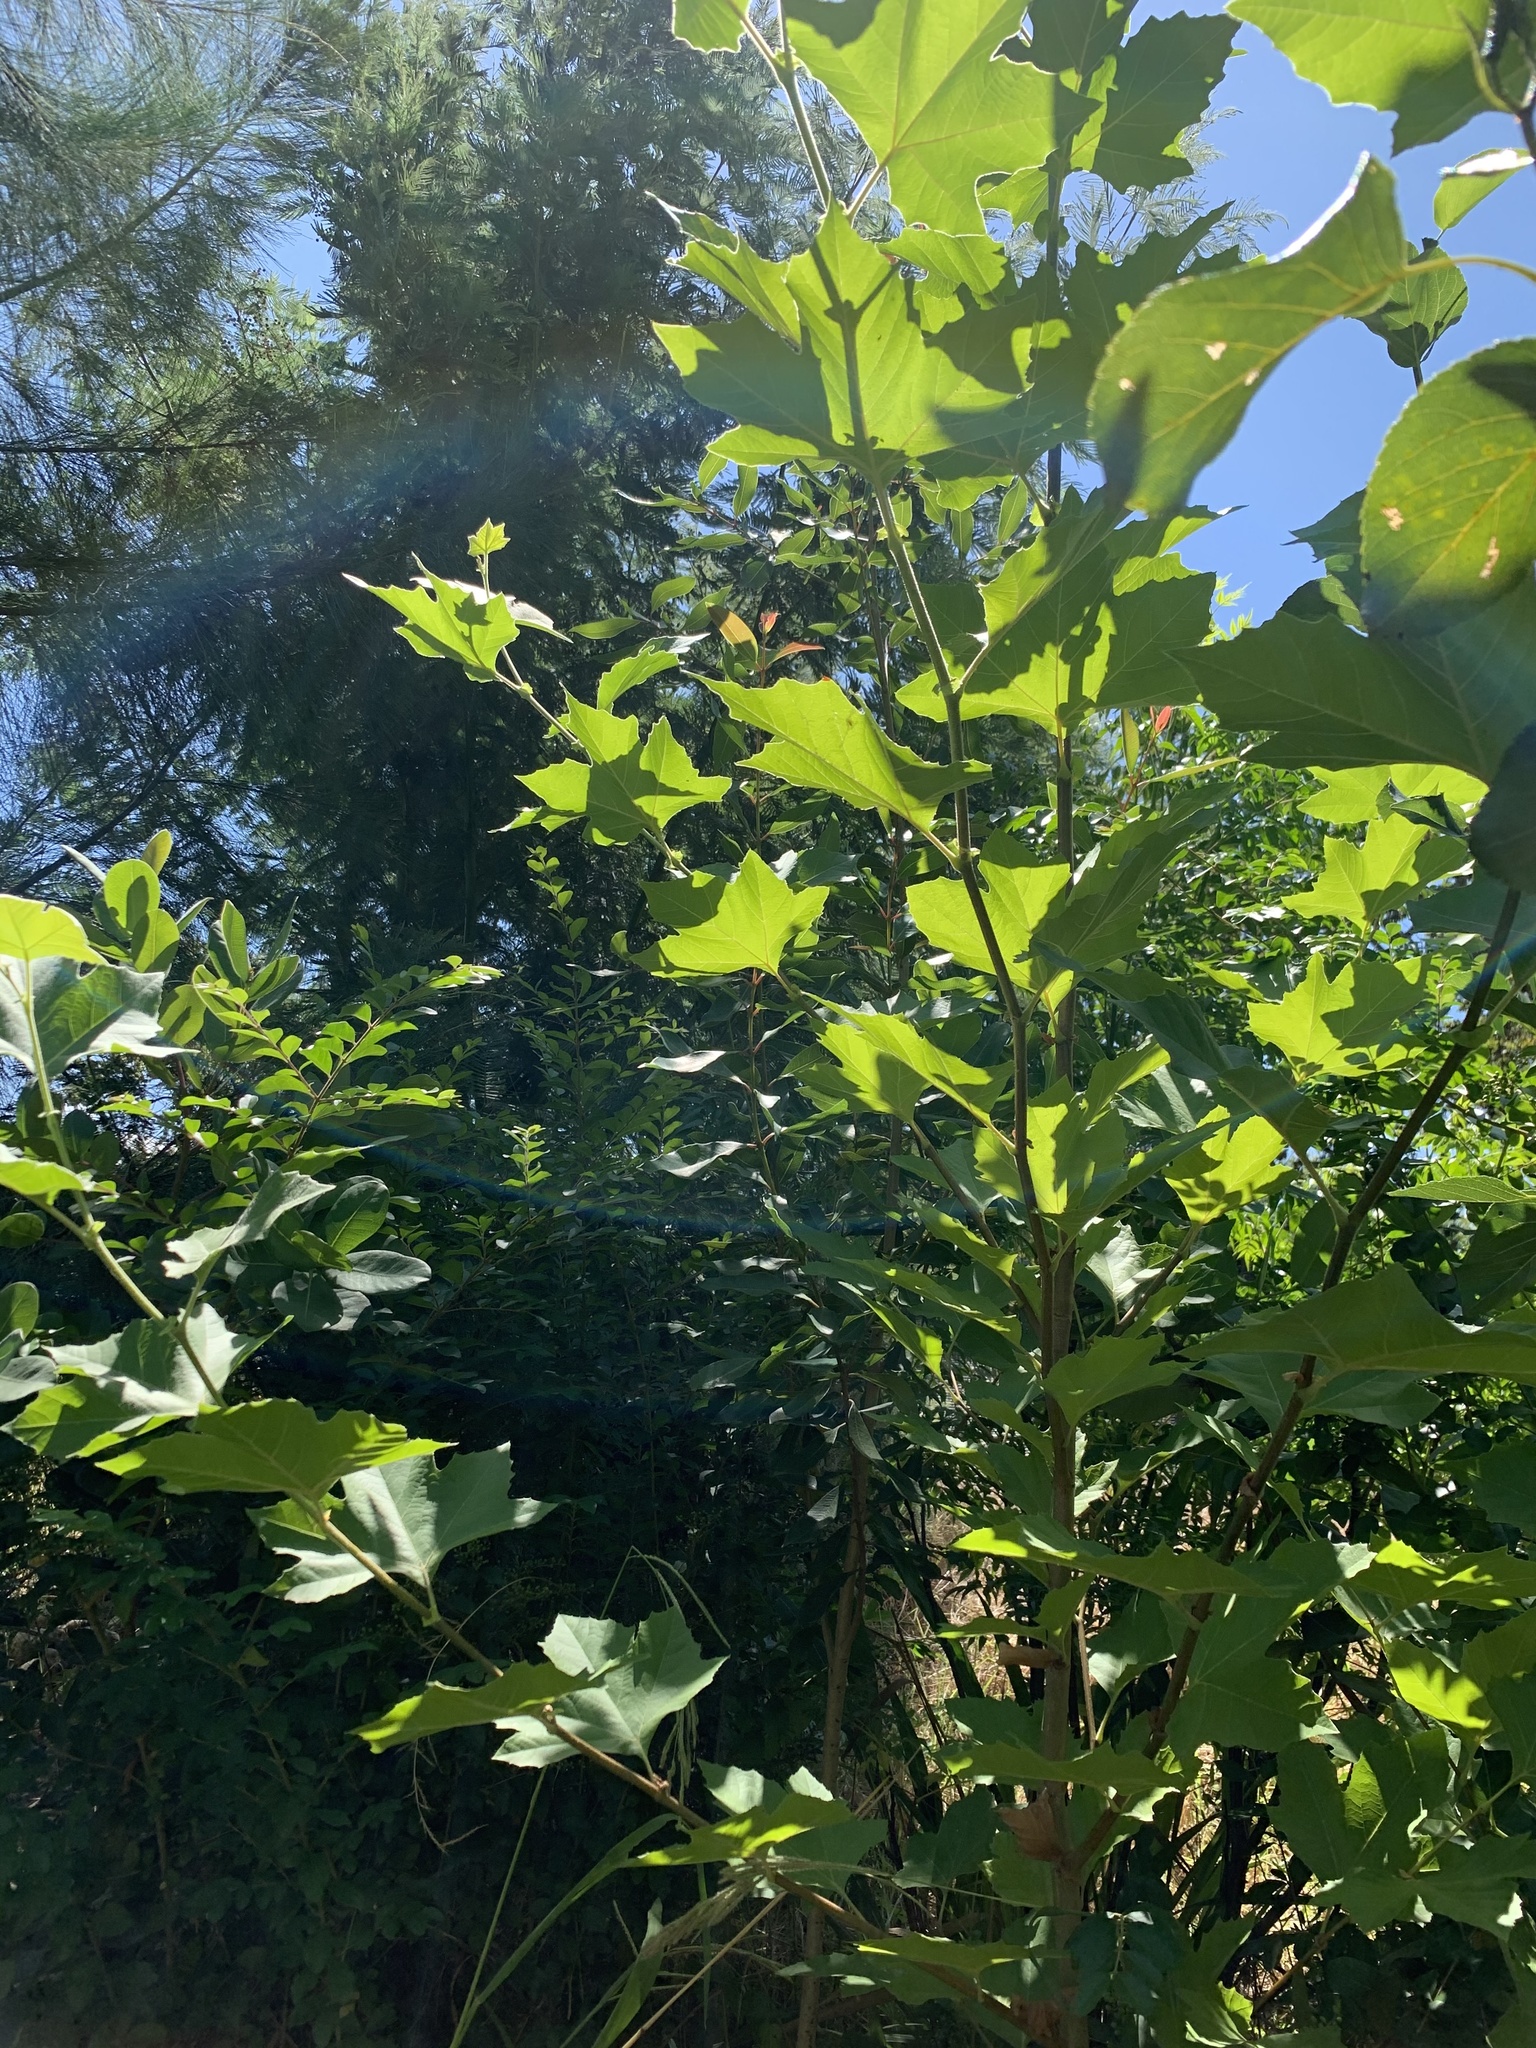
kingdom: Plantae
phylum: Tracheophyta
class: Magnoliopsida
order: Proteales
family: Platanaceae
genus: Platanus
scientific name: Platanus hispanica
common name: London plane
